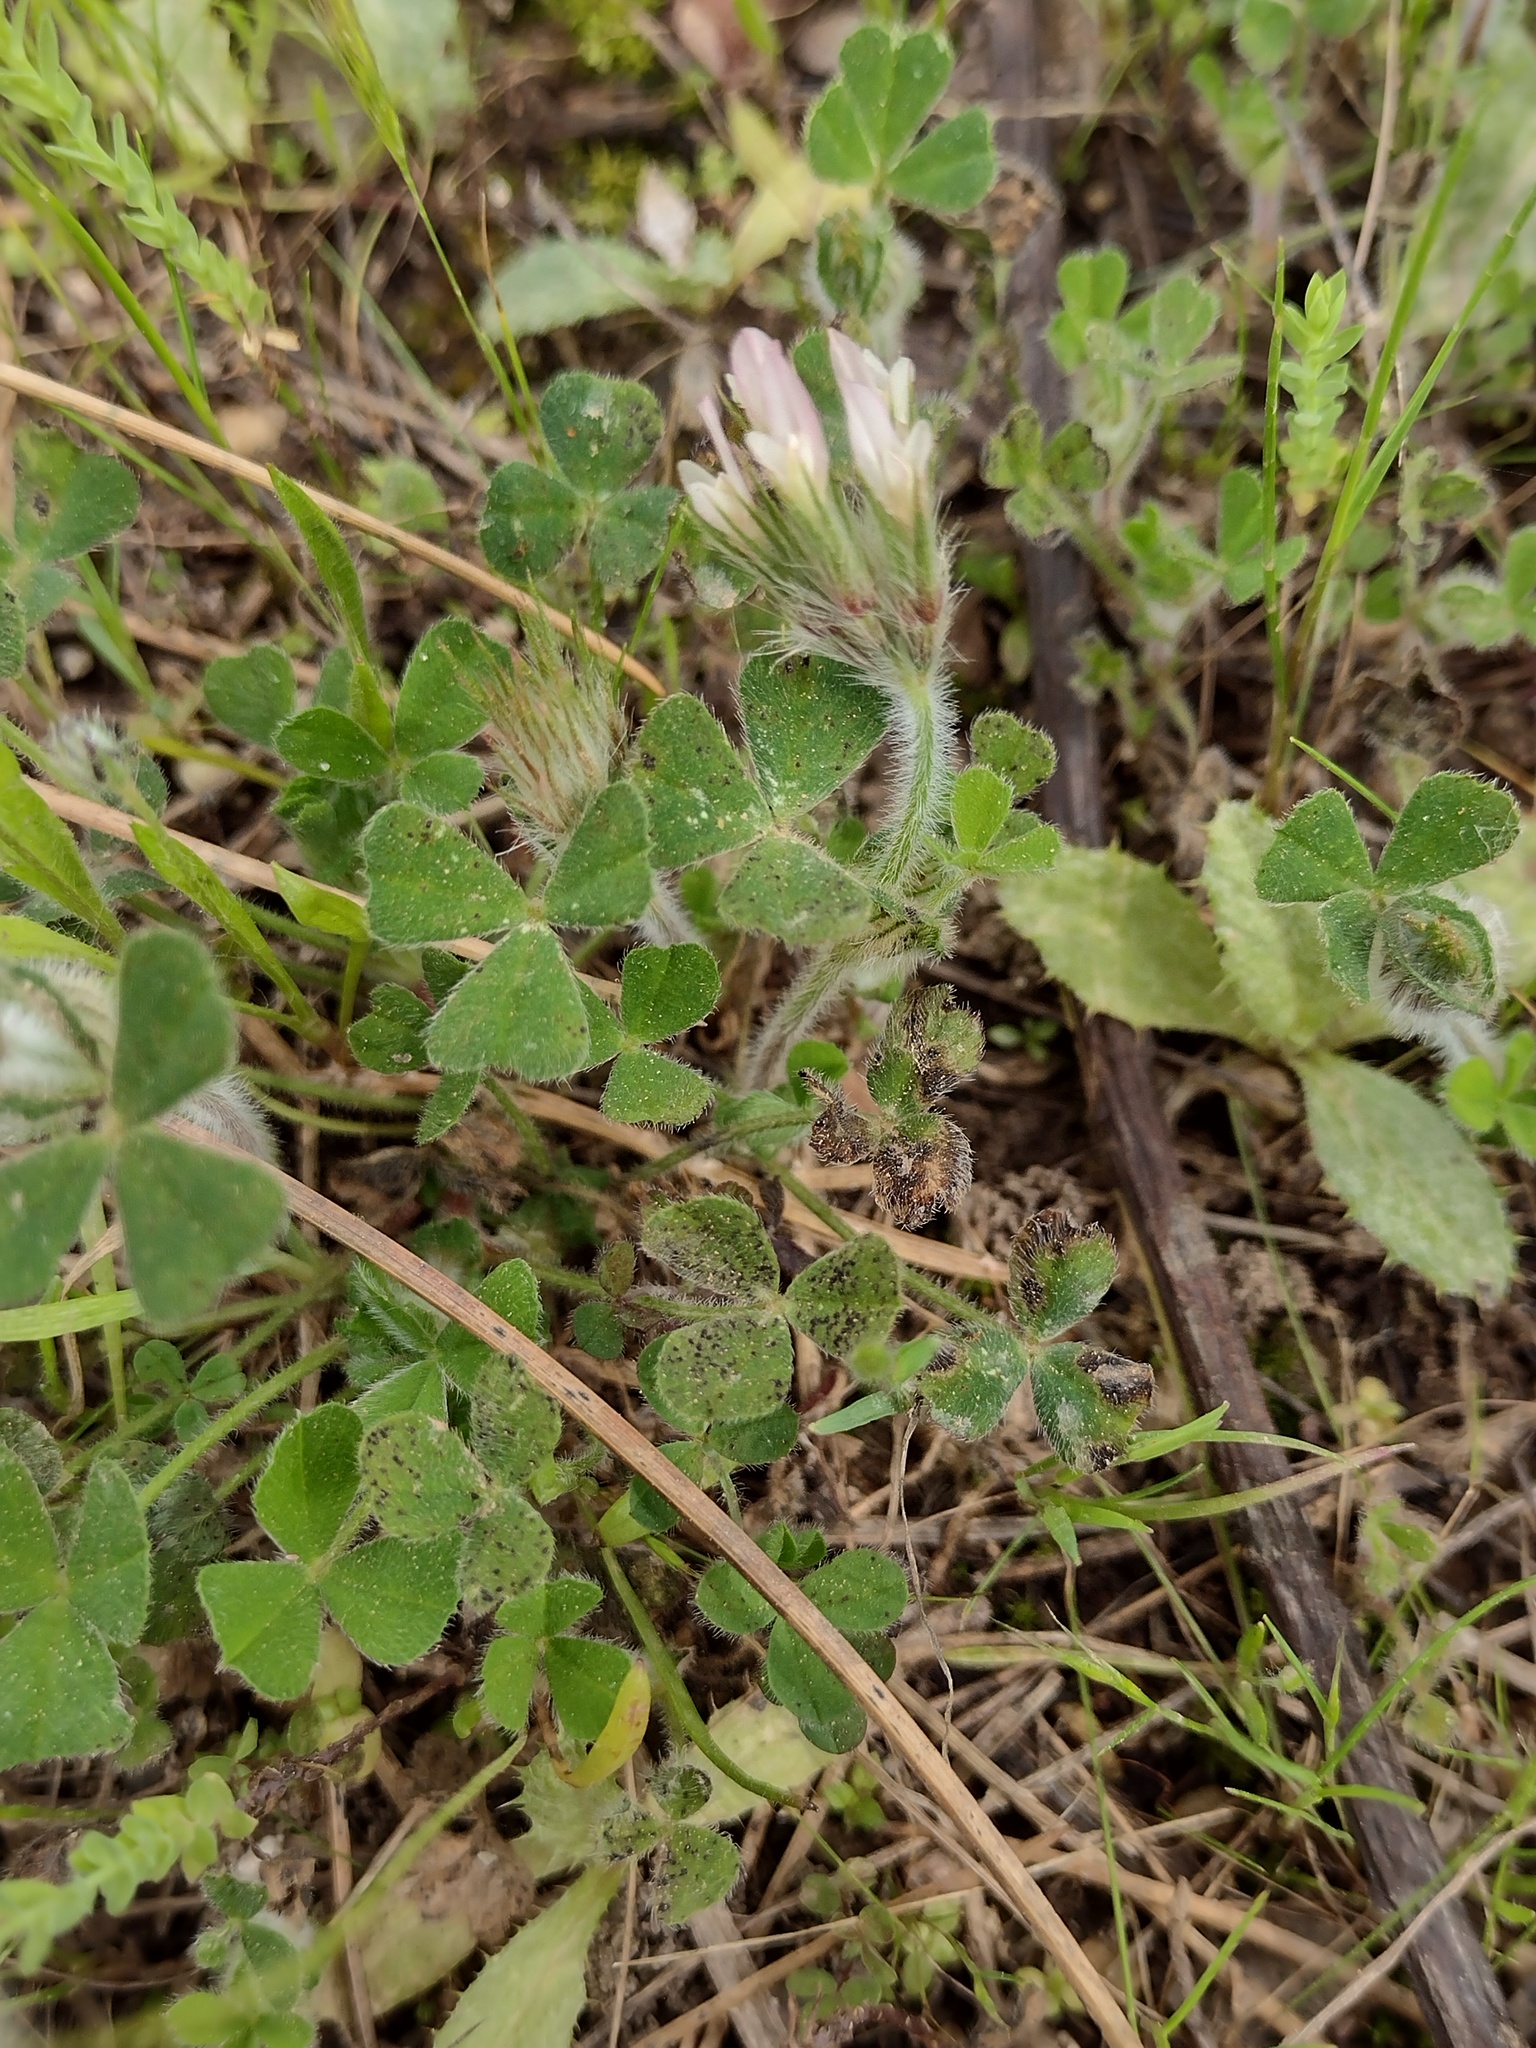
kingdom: Plantae
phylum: Tracheophyta
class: Magnoliopsida
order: Fabales
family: Fabaceae
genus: Trifolium
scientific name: Trifolium stellatum
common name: Starry clover
